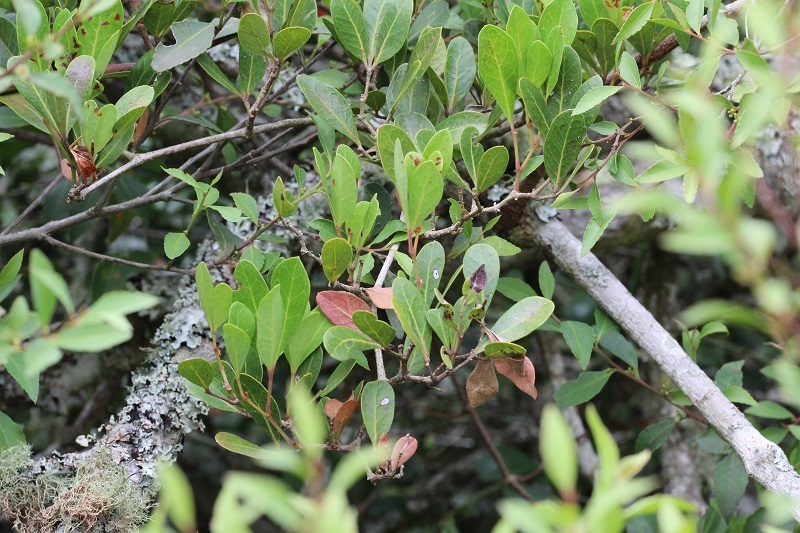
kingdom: Plantae
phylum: Tracheophyta
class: Magnoliopsida
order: Vitales
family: Vitaceae
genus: Rhoicissus
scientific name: Rhoicissus digitata
